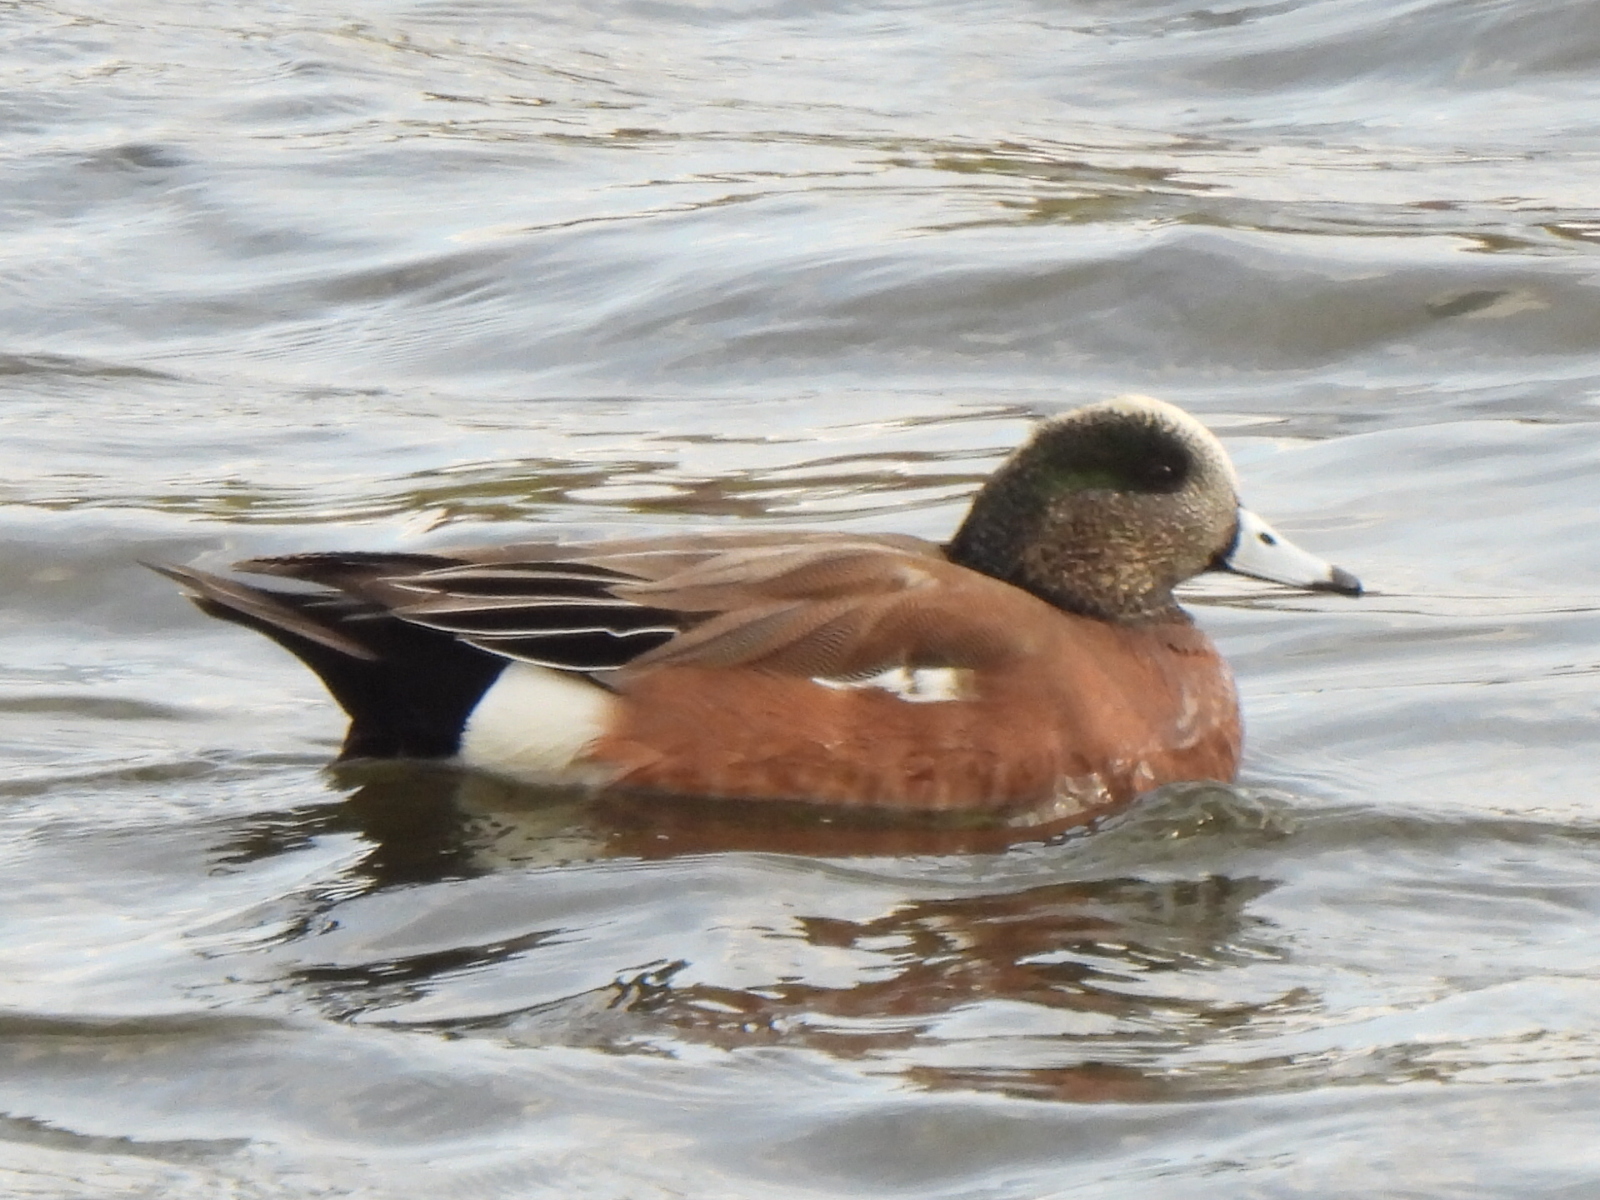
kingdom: Animalia
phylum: Chordata
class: Aves
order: Anseriformes
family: Anatidae
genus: Mareca
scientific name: Mareca americana
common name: American wigeon
